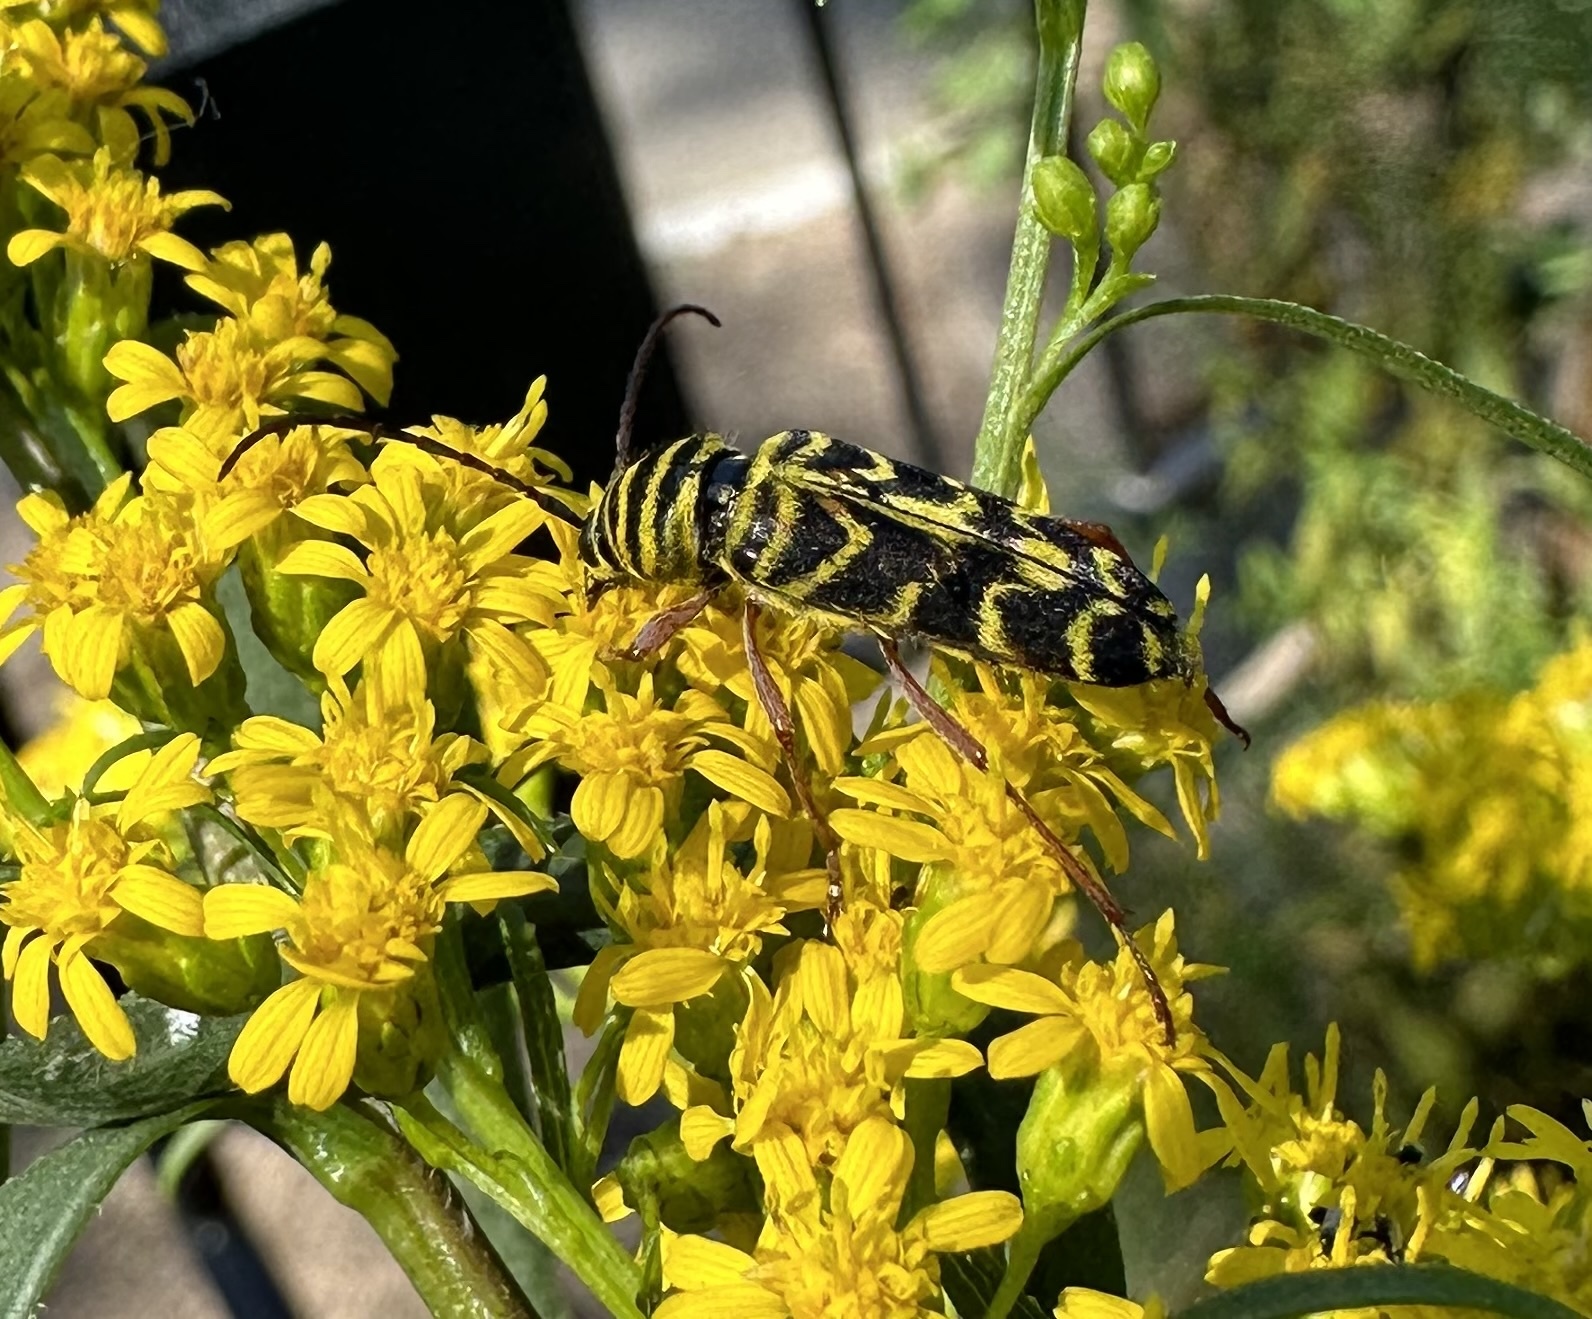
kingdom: Animalia
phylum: Arthropoda
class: Insecta
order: Coleoptera
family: Cerambycidae
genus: Megacyllene
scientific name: Megacyllene robiniae
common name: Locust borer
